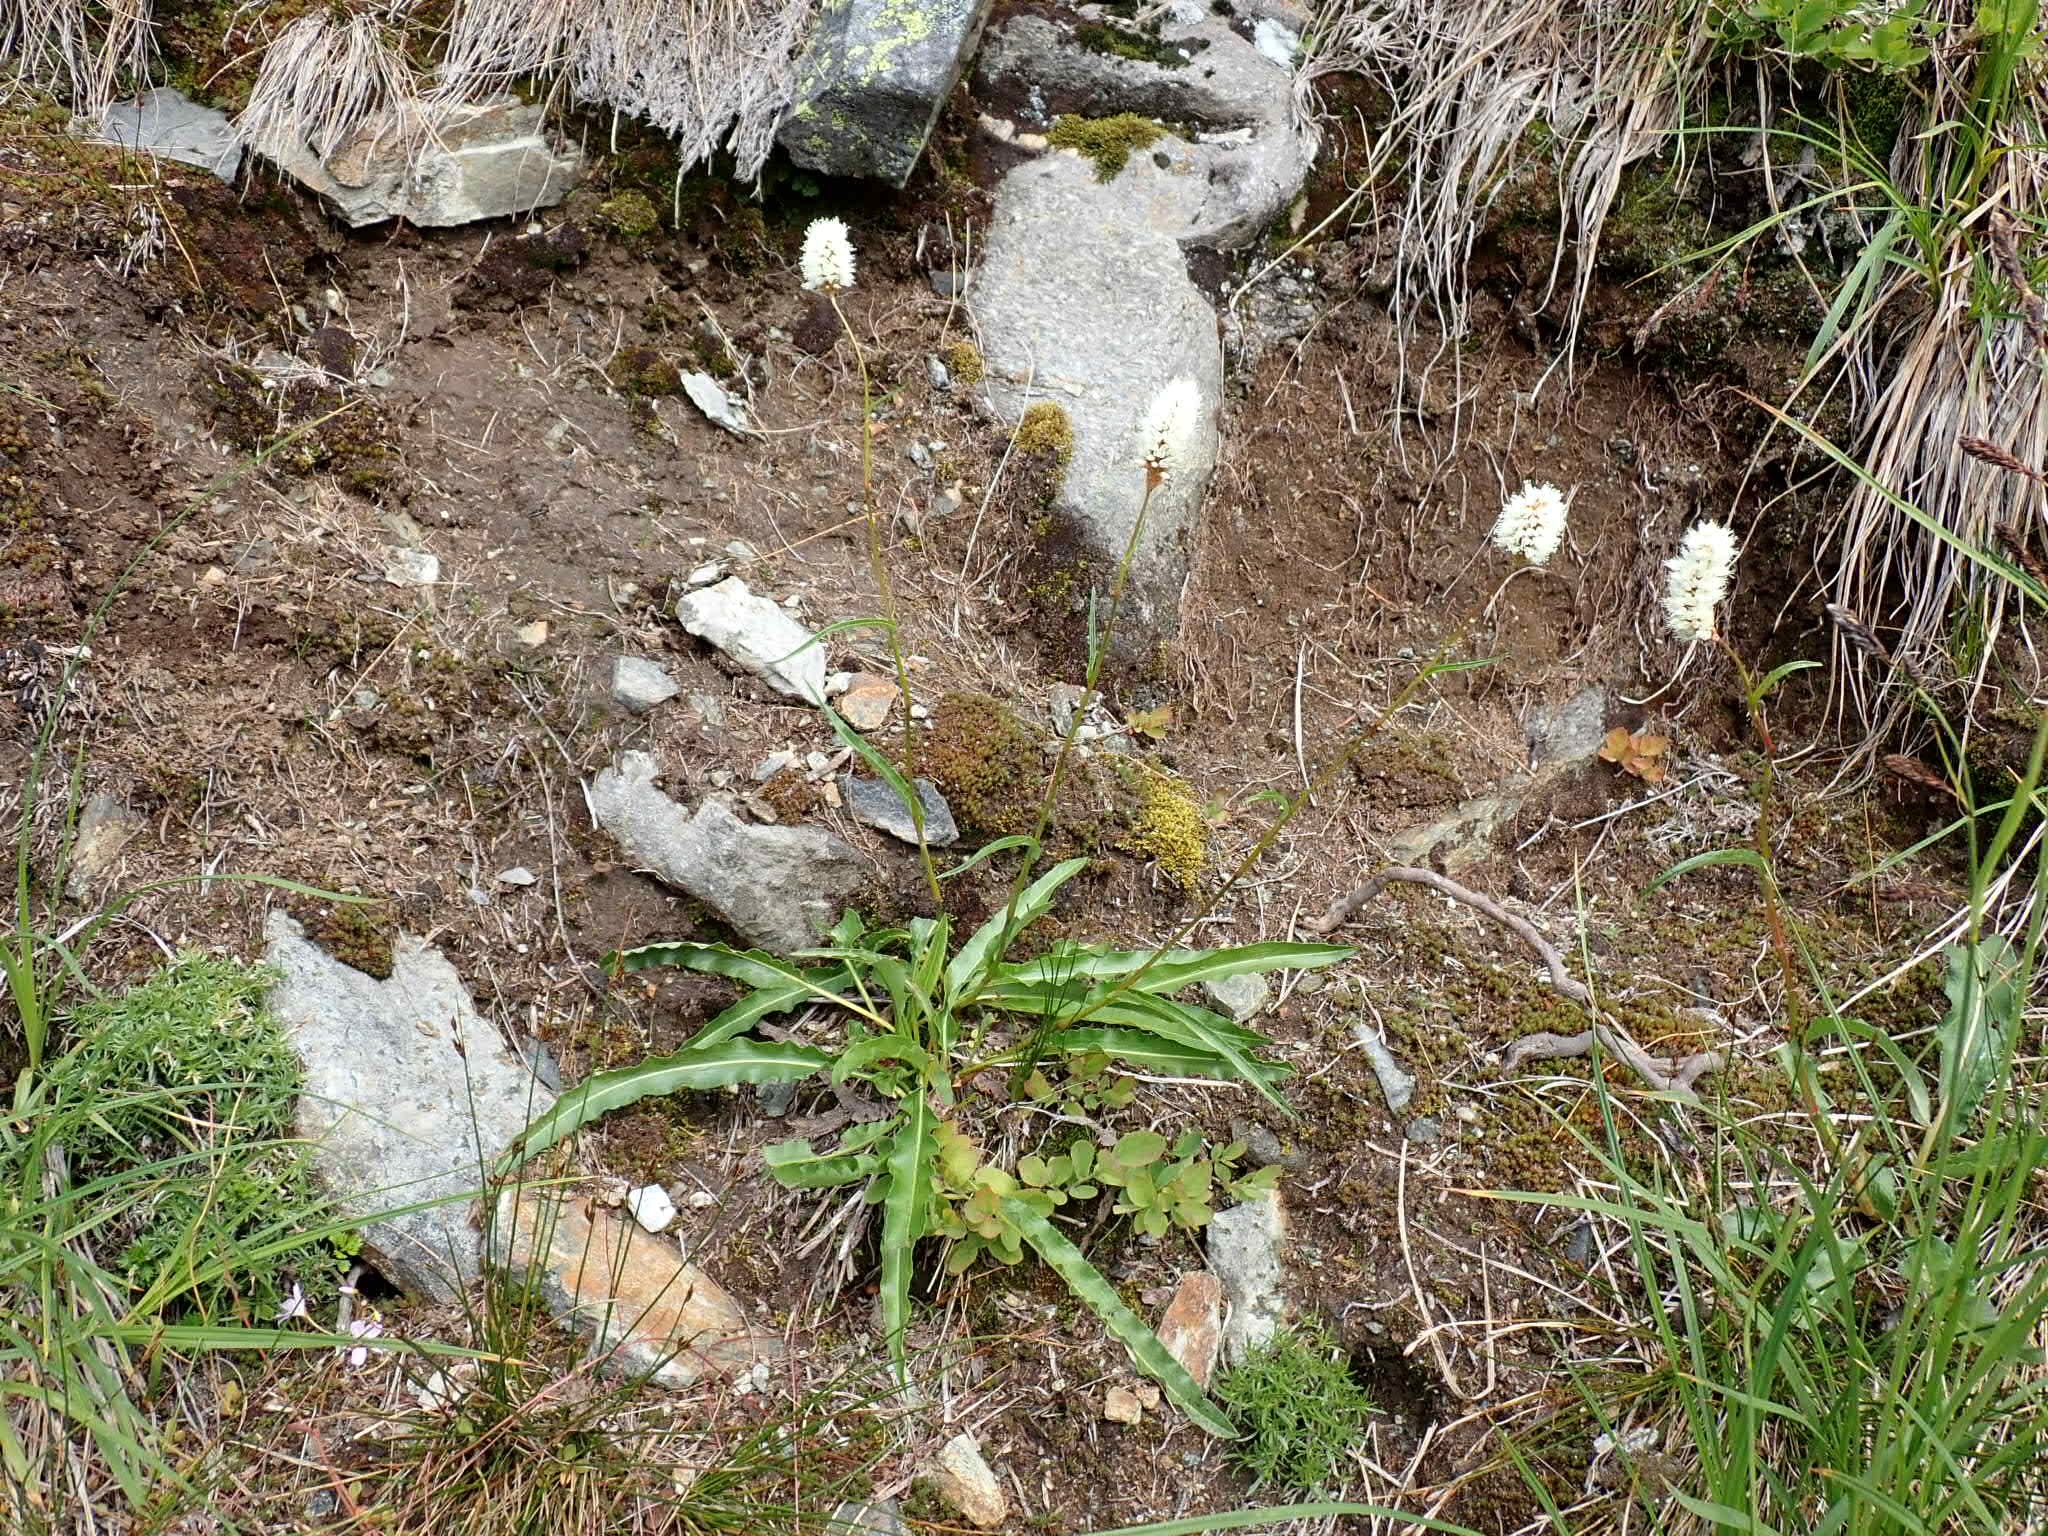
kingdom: Plantae
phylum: Tracheophyta
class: Magnoliopsida
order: Caryophyllales
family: Polygonaceae
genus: Bistorta
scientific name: Bistorta bistortoides
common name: American bistort
